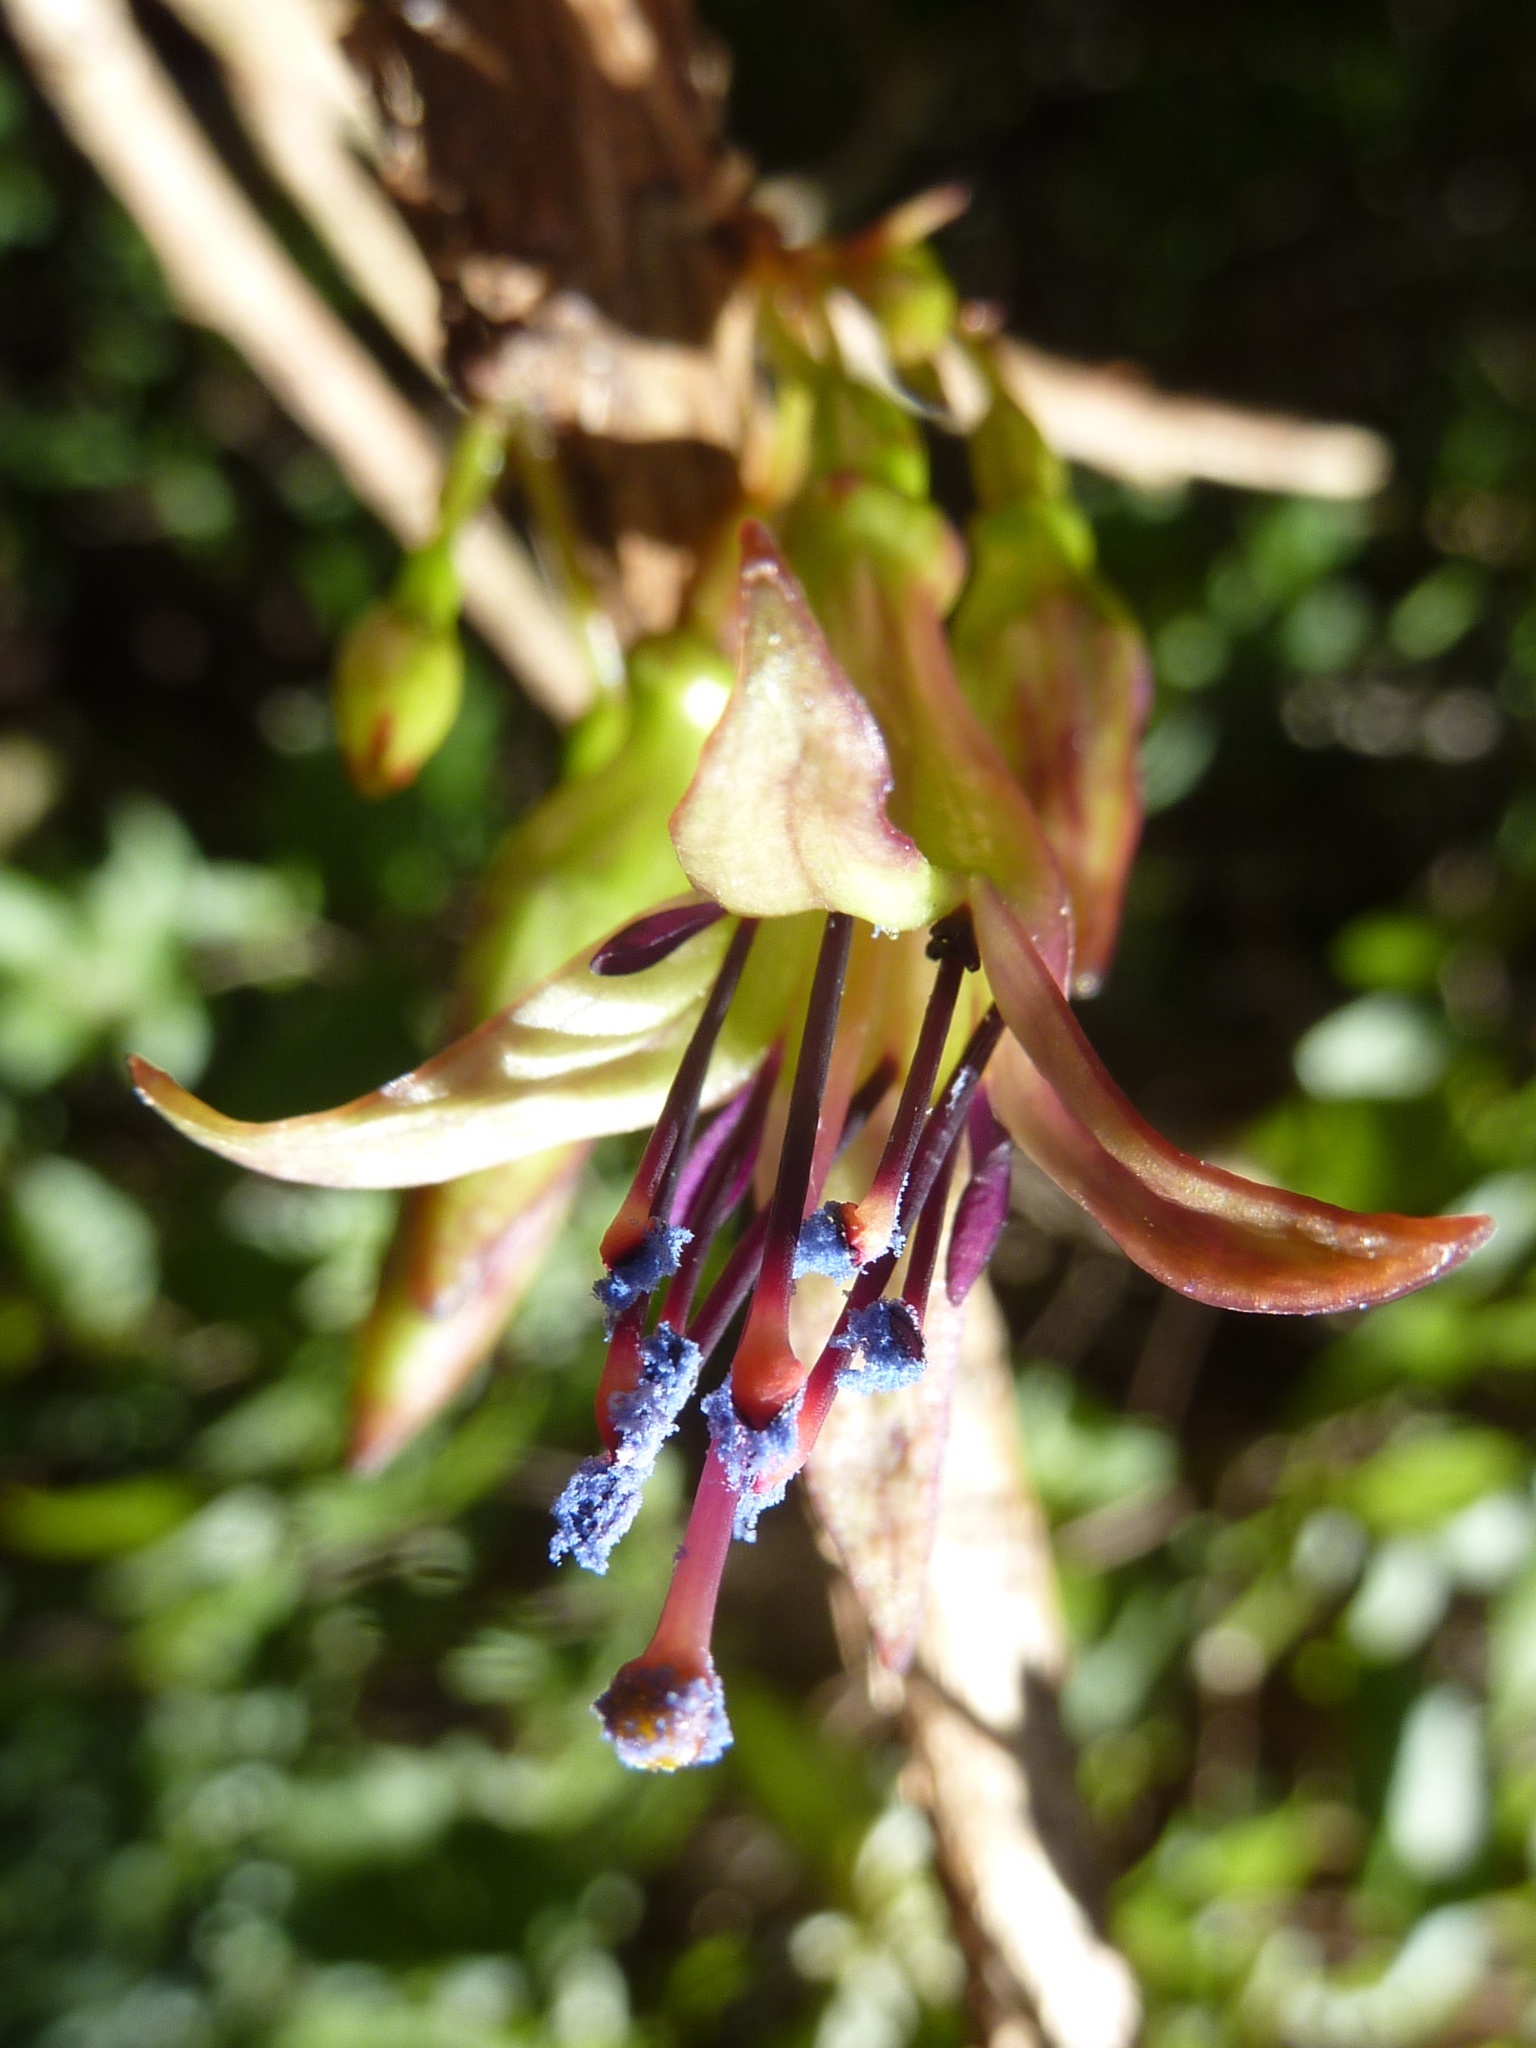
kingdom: Plantae
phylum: Tracheophyta
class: Magnoliopsida
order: Myrtales
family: Onagraceae
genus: Fuchsia
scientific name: Fuchsia excorticata
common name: Tree fuchsia
